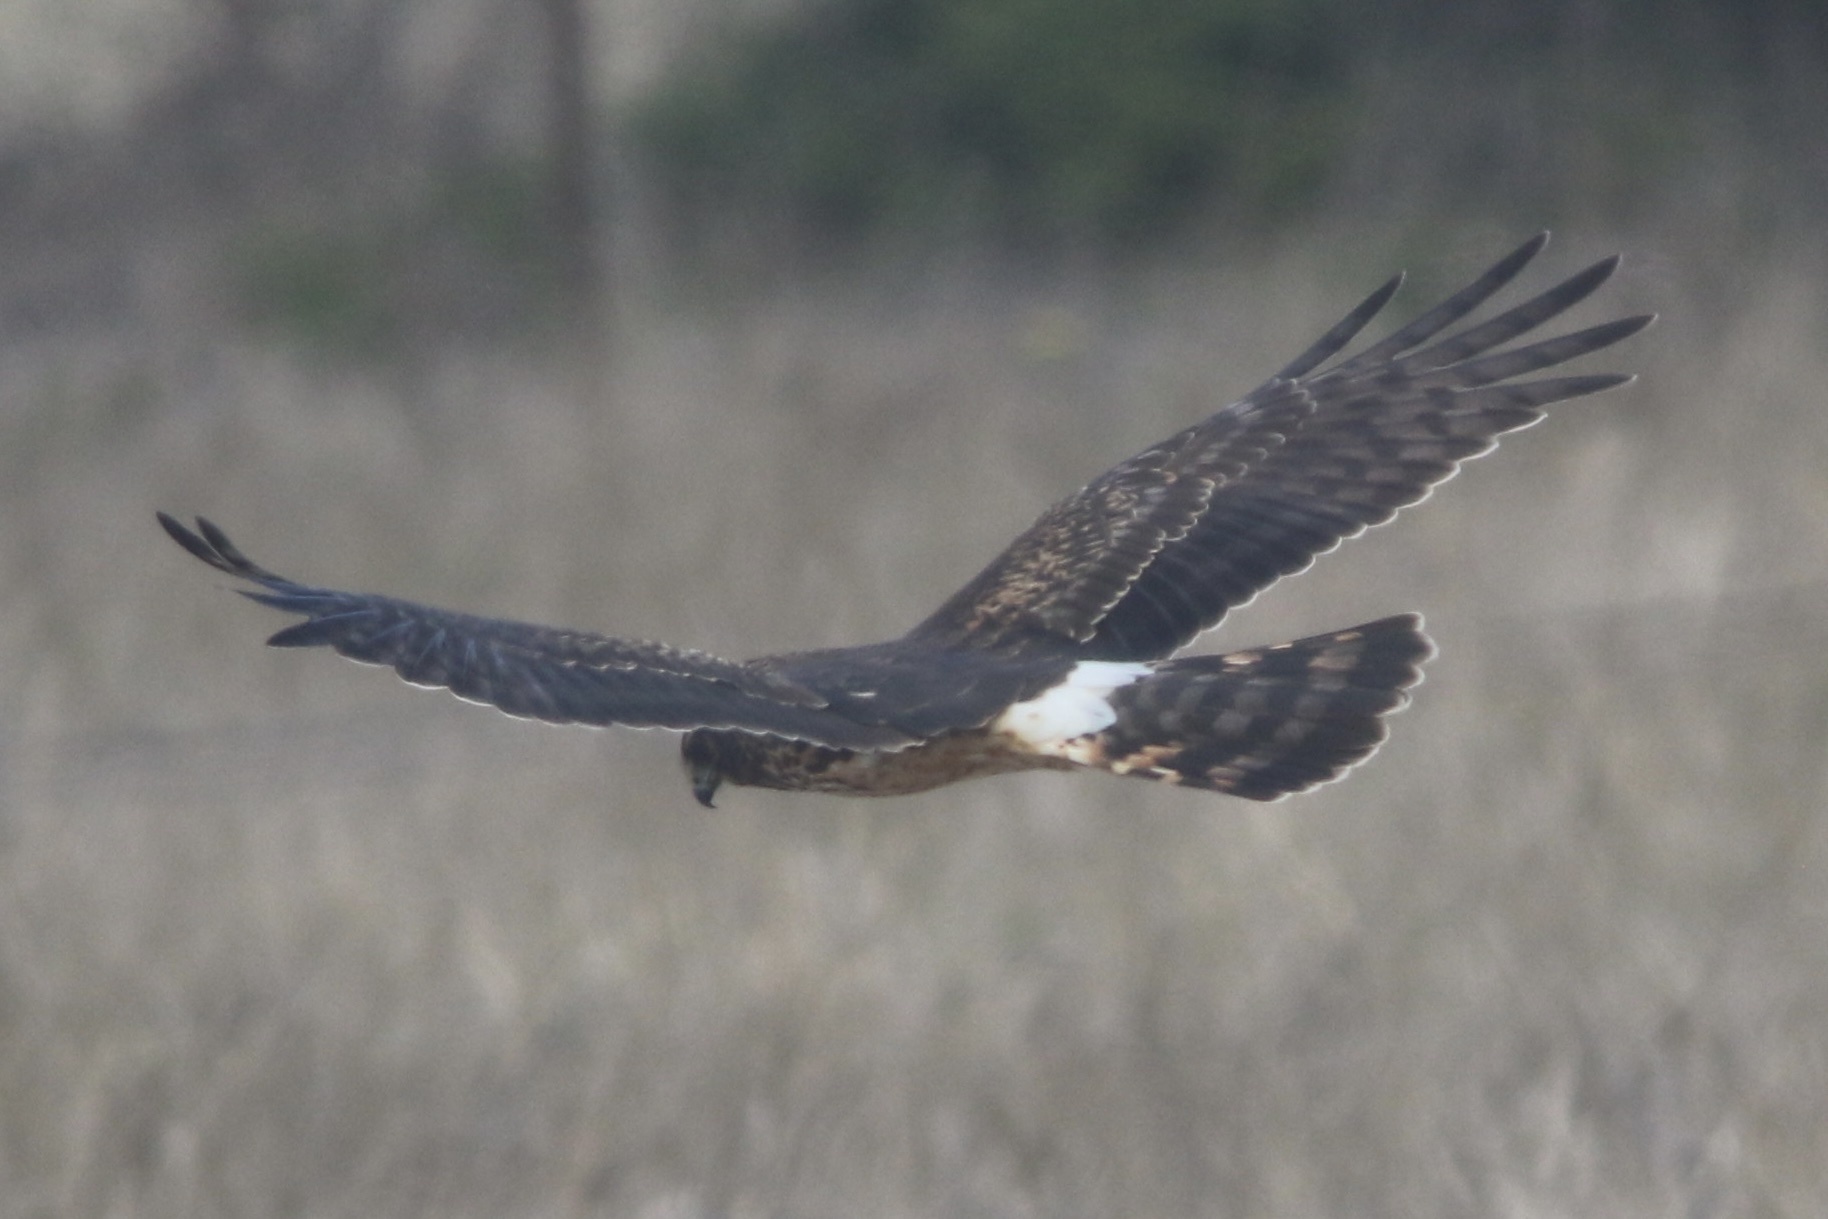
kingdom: Animalia
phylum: Chordata
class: Aves
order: Accipitriformes
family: Accipitridae
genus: Circus
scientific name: Circus cyaneus
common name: Hen harrier
